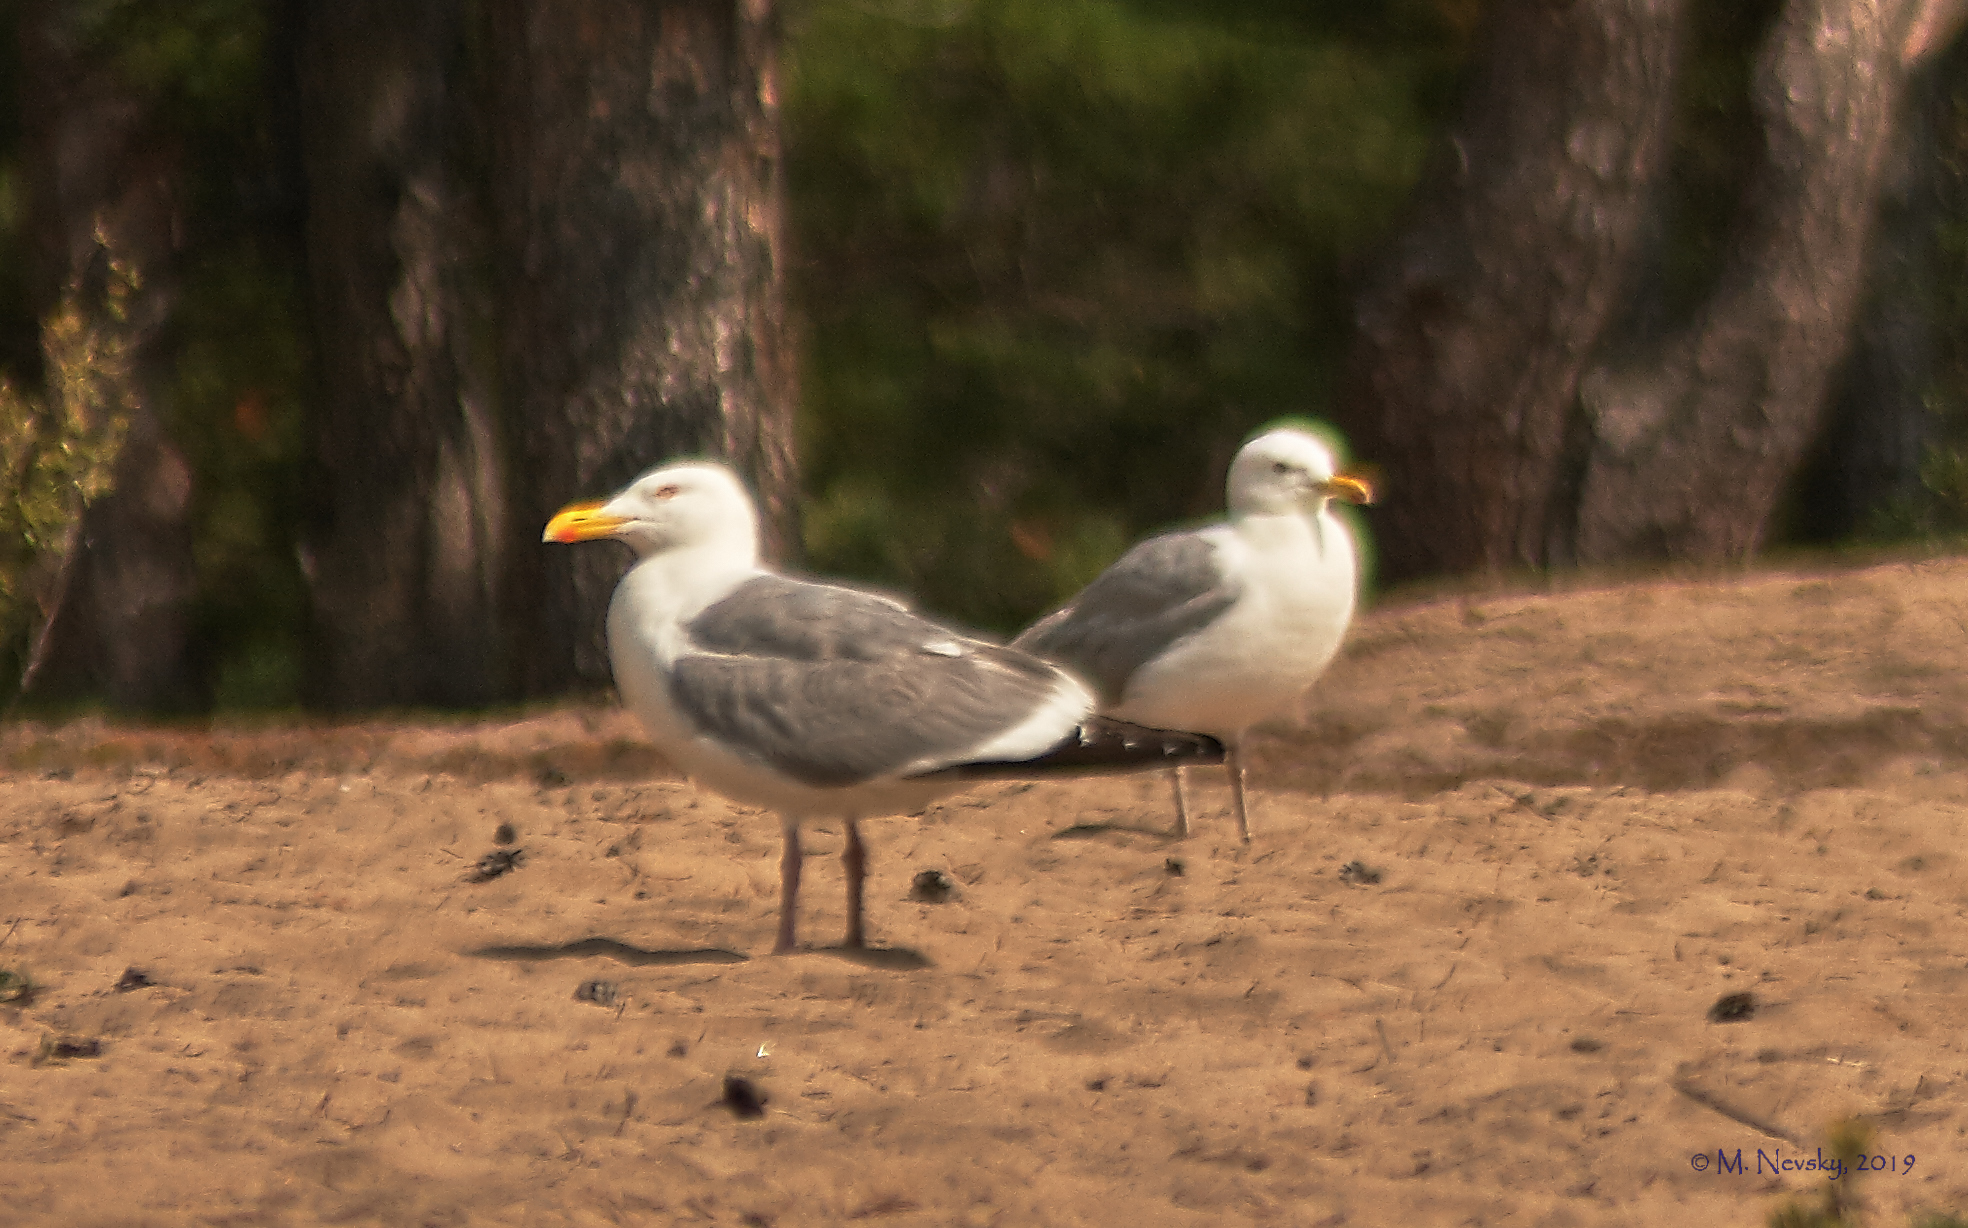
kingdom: Animalia
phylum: Chordata
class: Aves
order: Charadriiformes
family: Laridae
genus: Larus
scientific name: Larus vegae
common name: Vega gull
